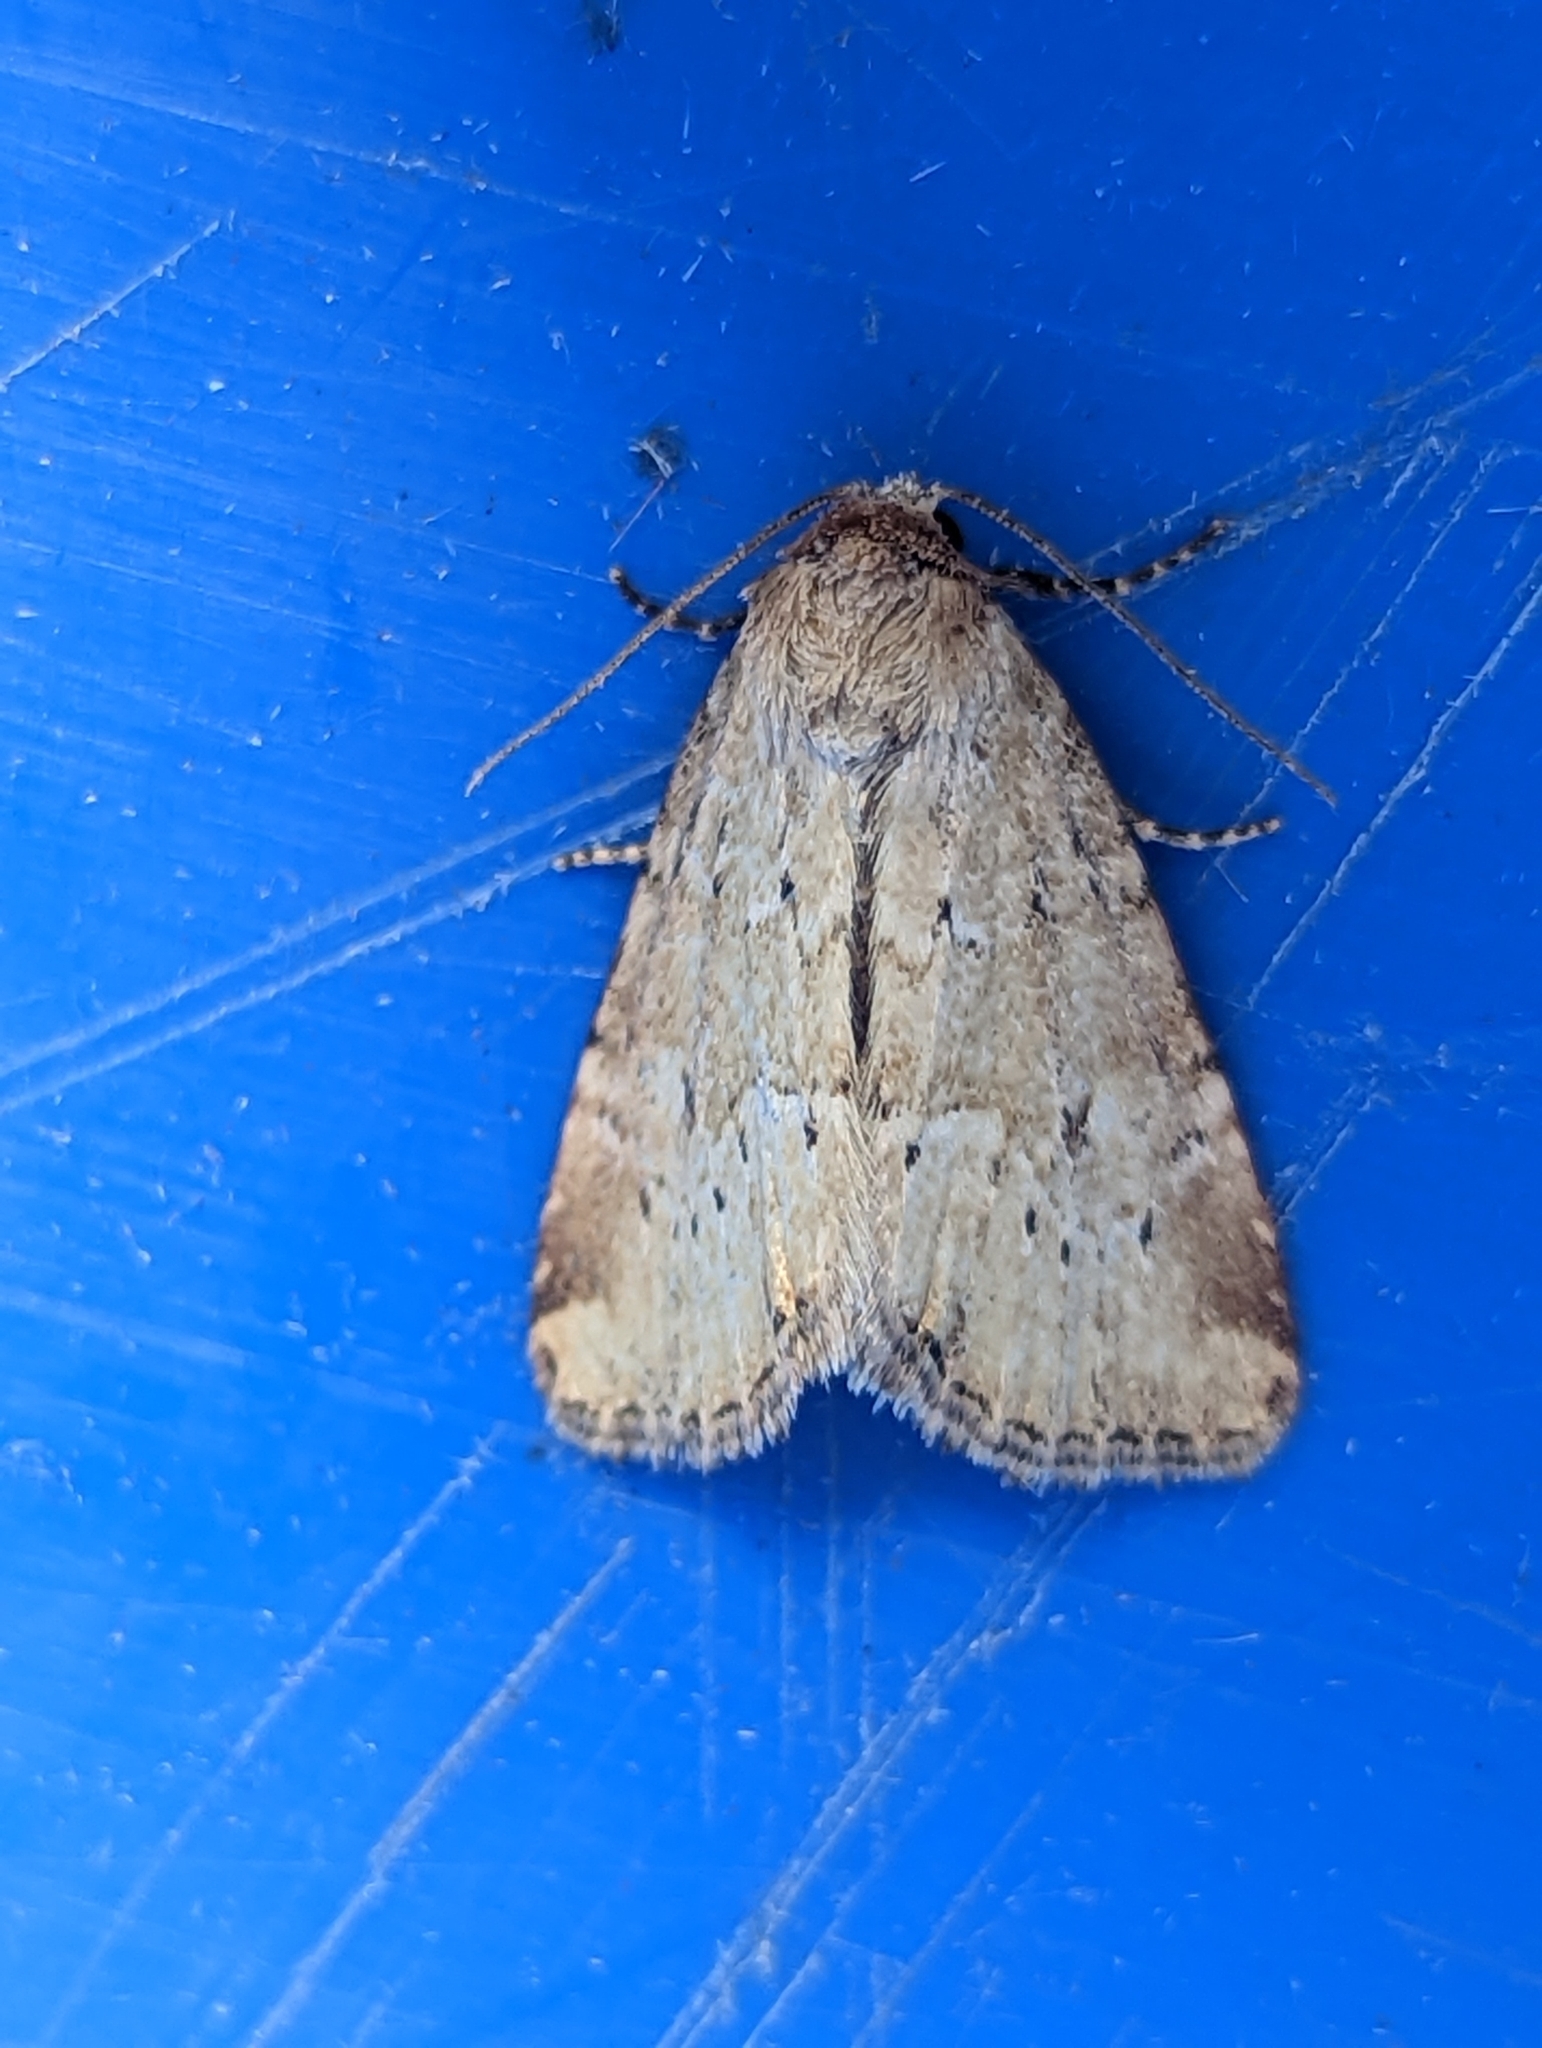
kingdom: Animalia
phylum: Arthropoda
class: Insecta
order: Lepidoptera
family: Noctuidae
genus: Photedes
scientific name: Photedes minima
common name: Small dotted buff
